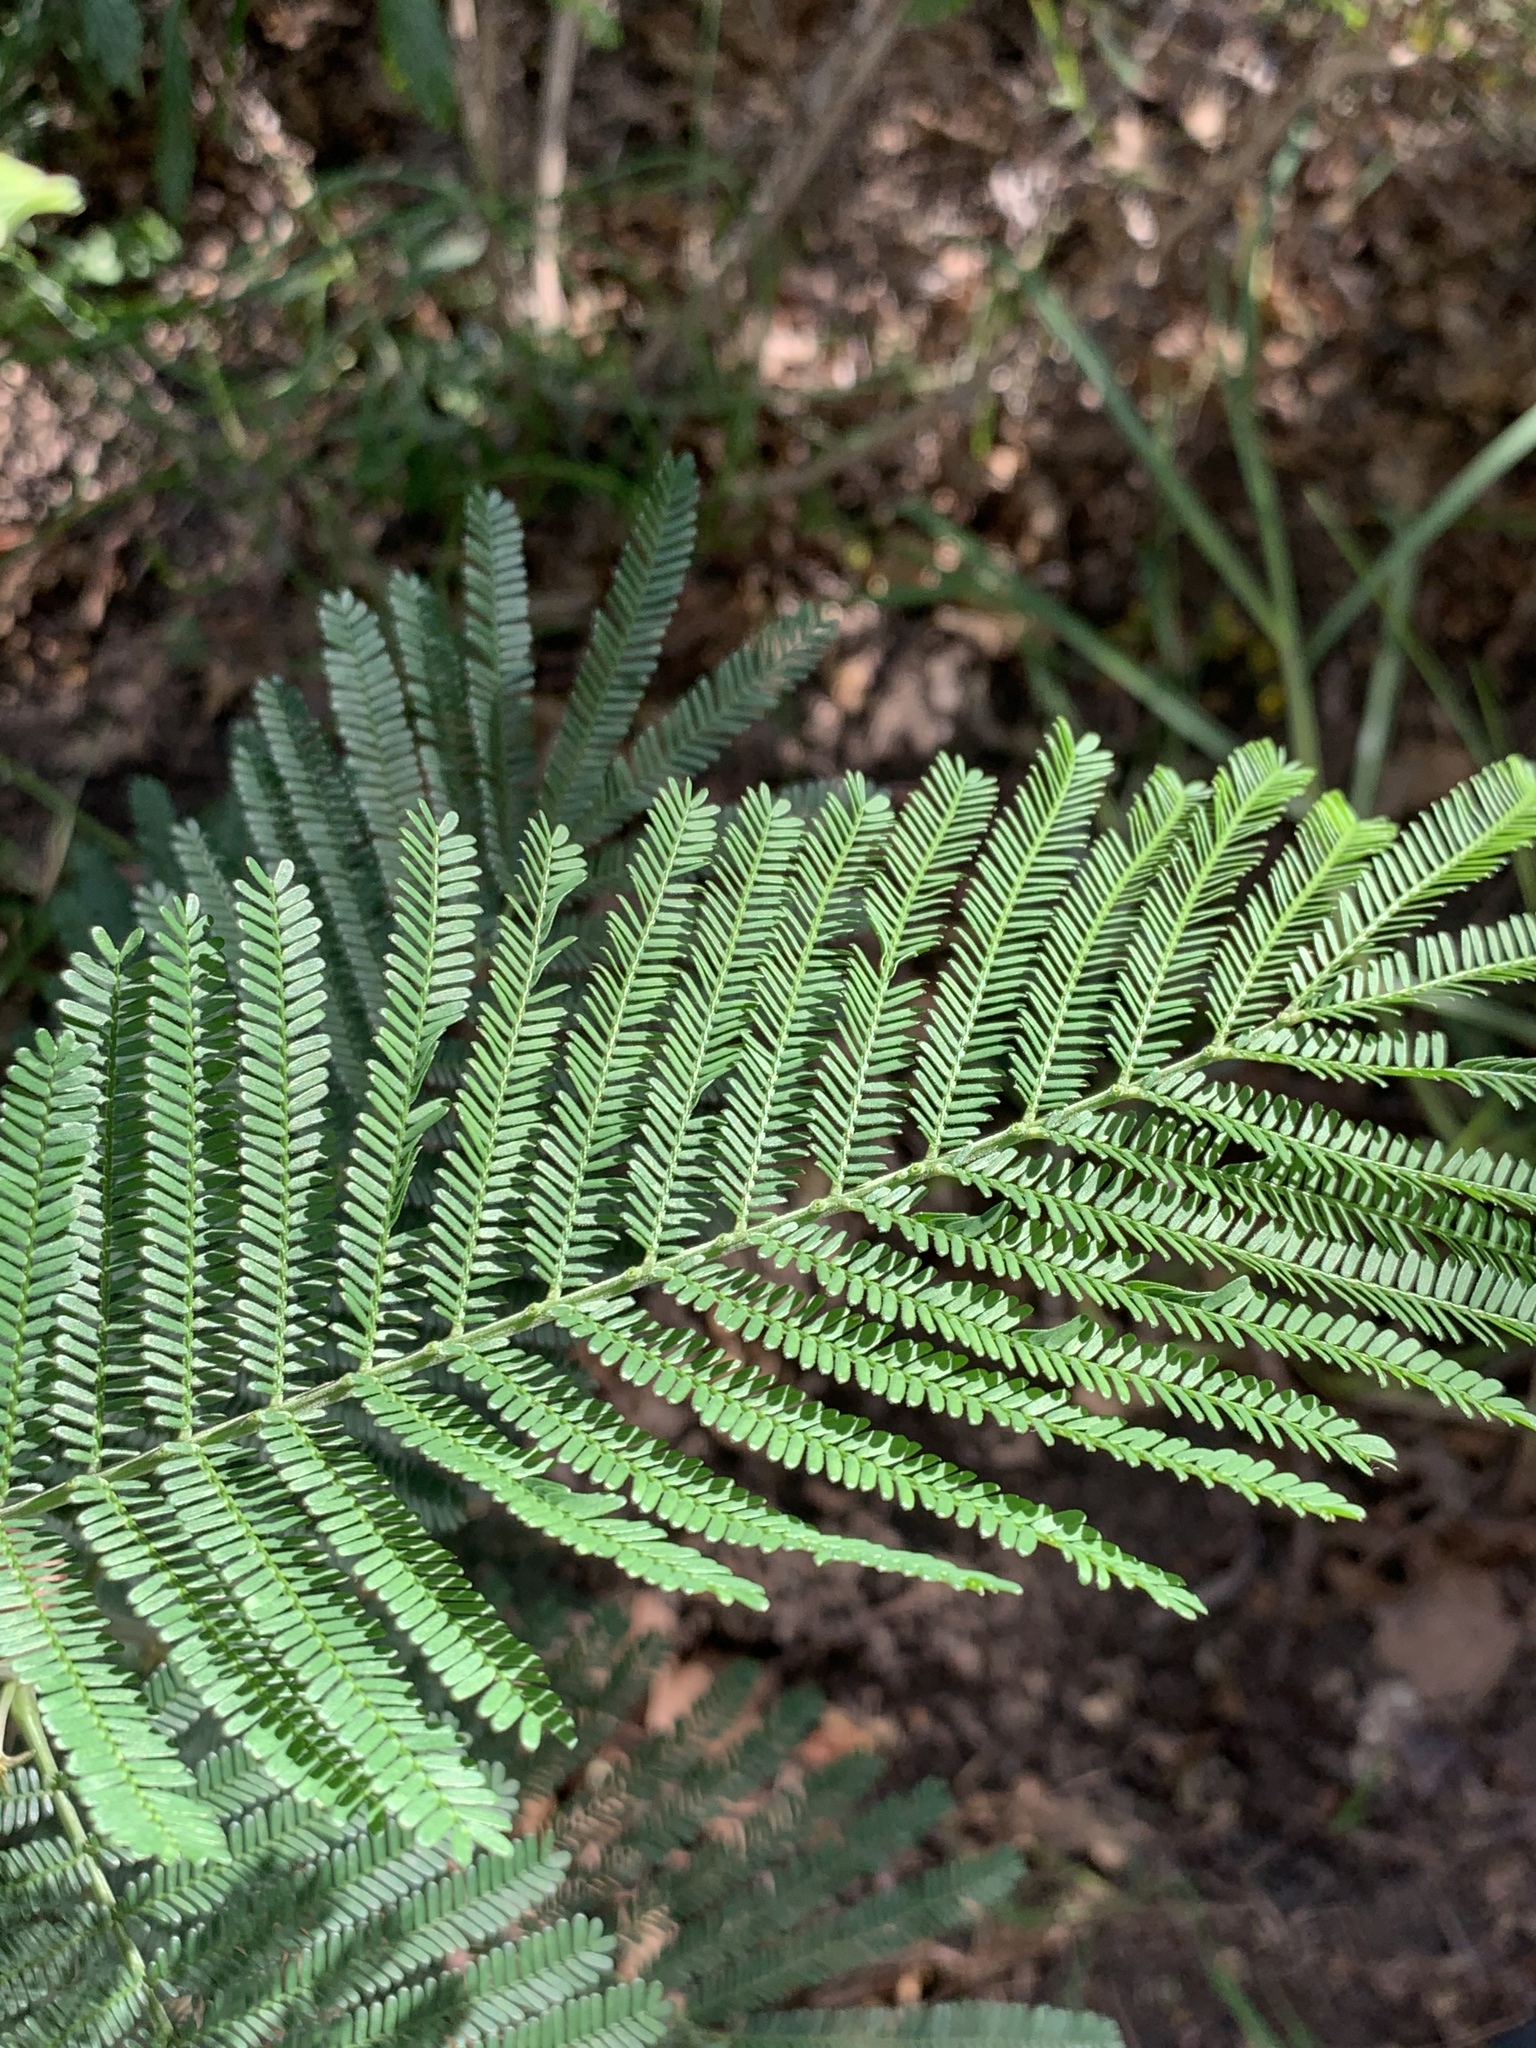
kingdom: Plantae
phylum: Tracheophyta
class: Magnoliopsida
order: Fabales
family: Fabaceae
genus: Acacia
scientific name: Acacia mearnsii
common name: Black wattle
